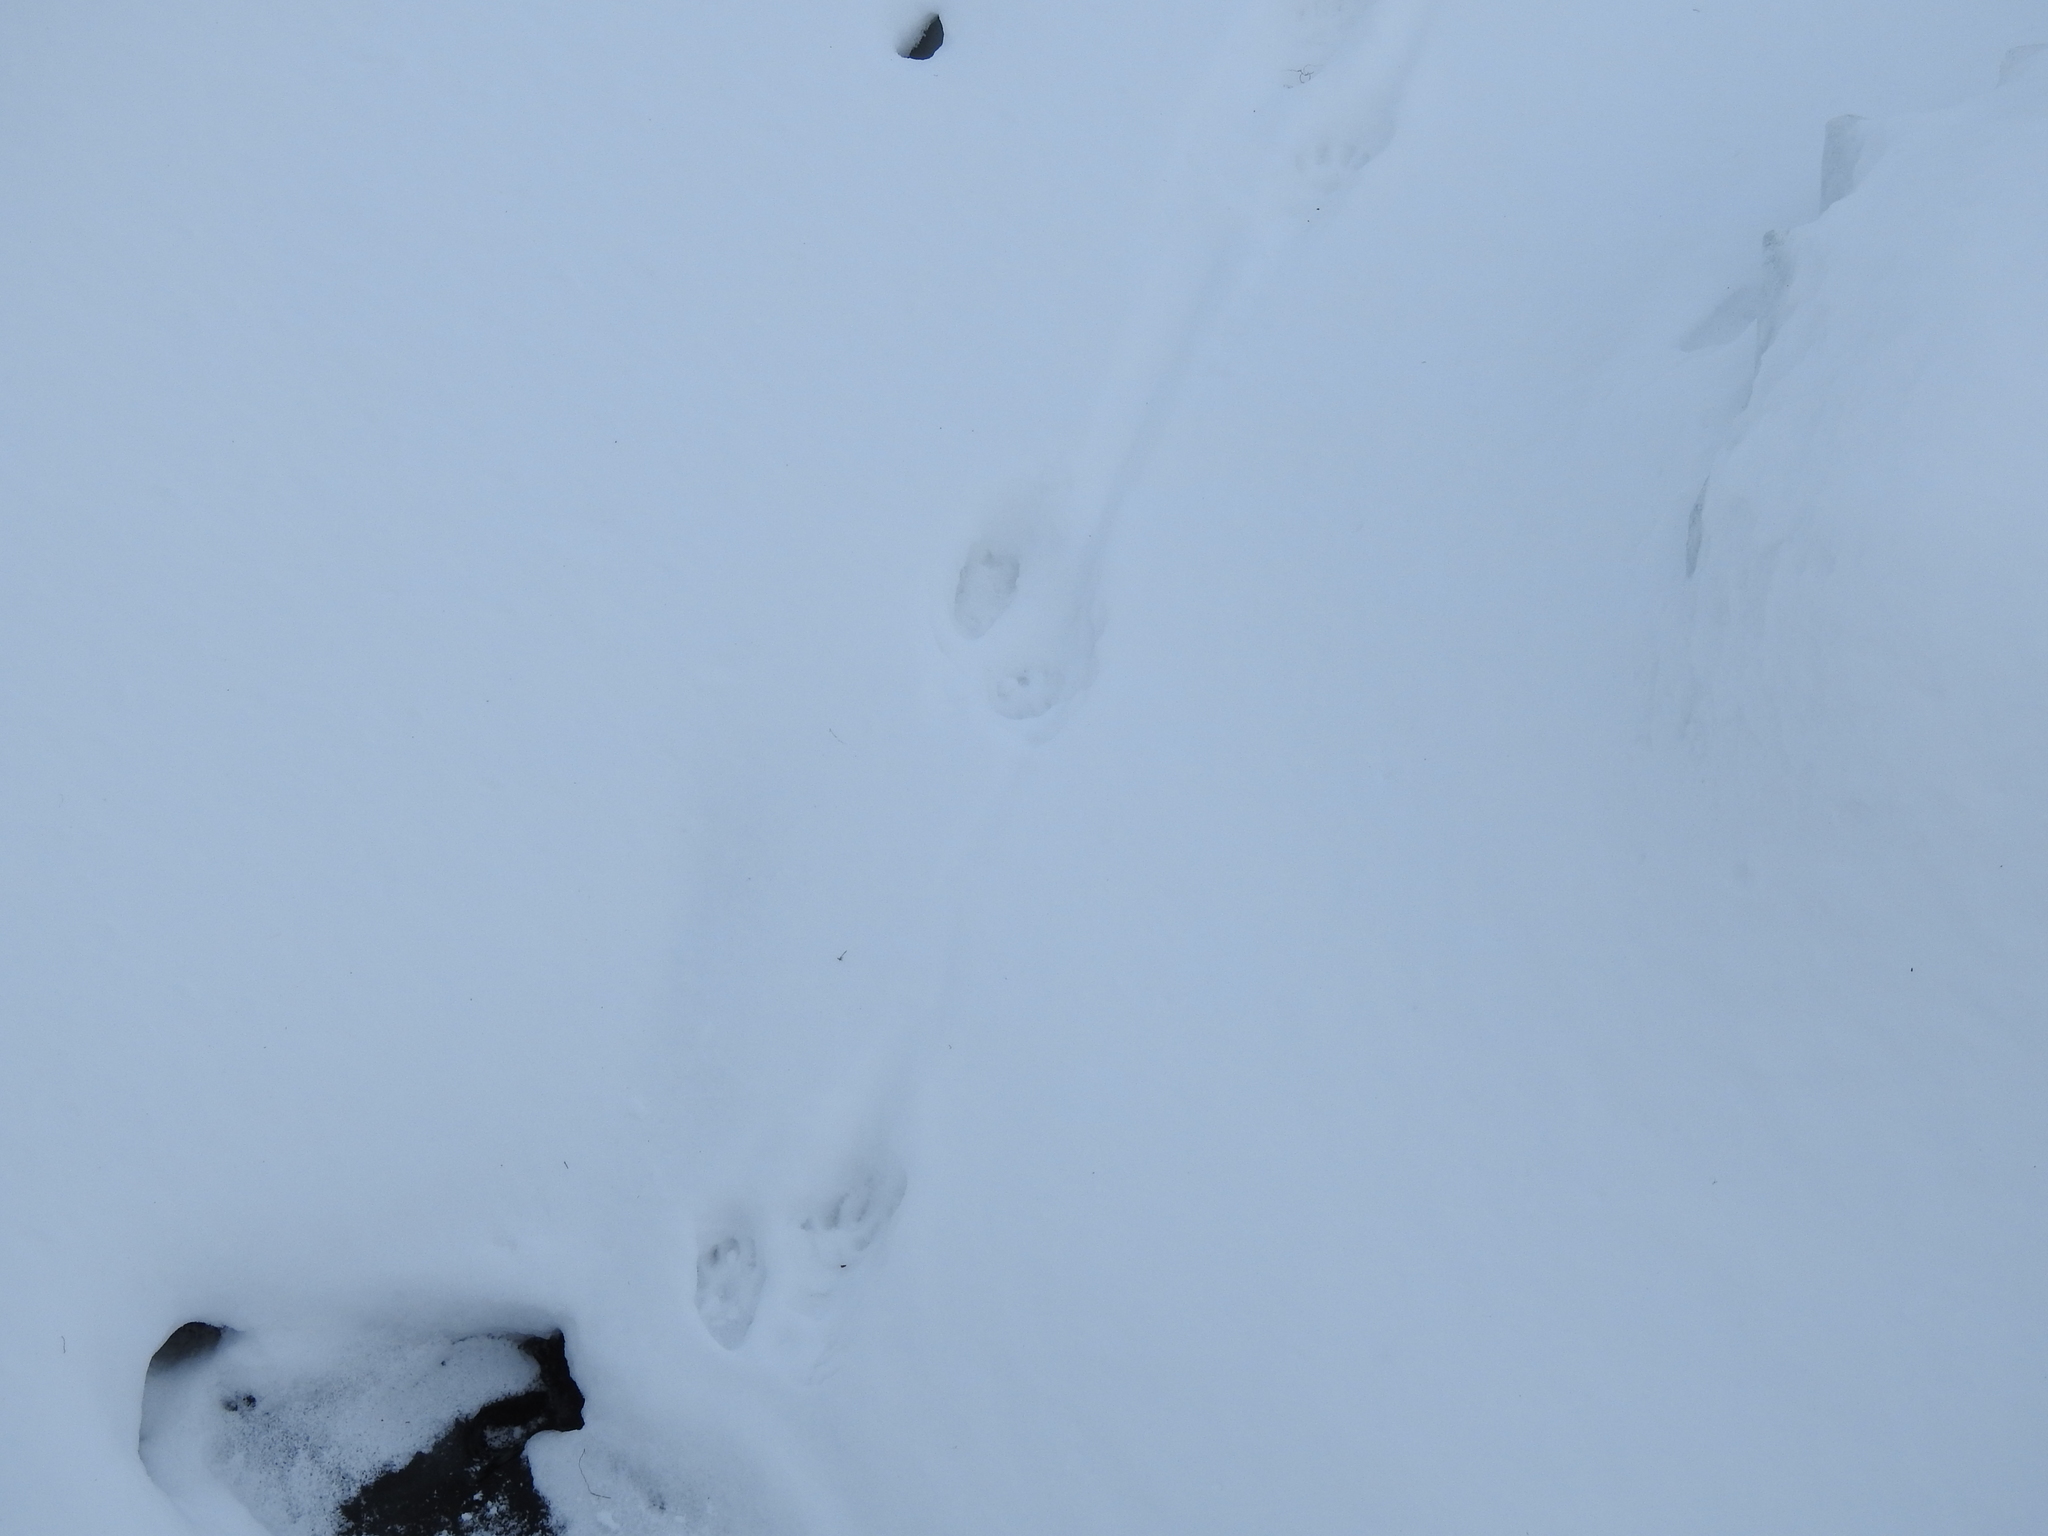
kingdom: Animalia
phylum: Chordata
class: Mammalia
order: Carnivora
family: Canidae
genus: Canis
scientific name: Canis lupus
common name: Gray wolf
